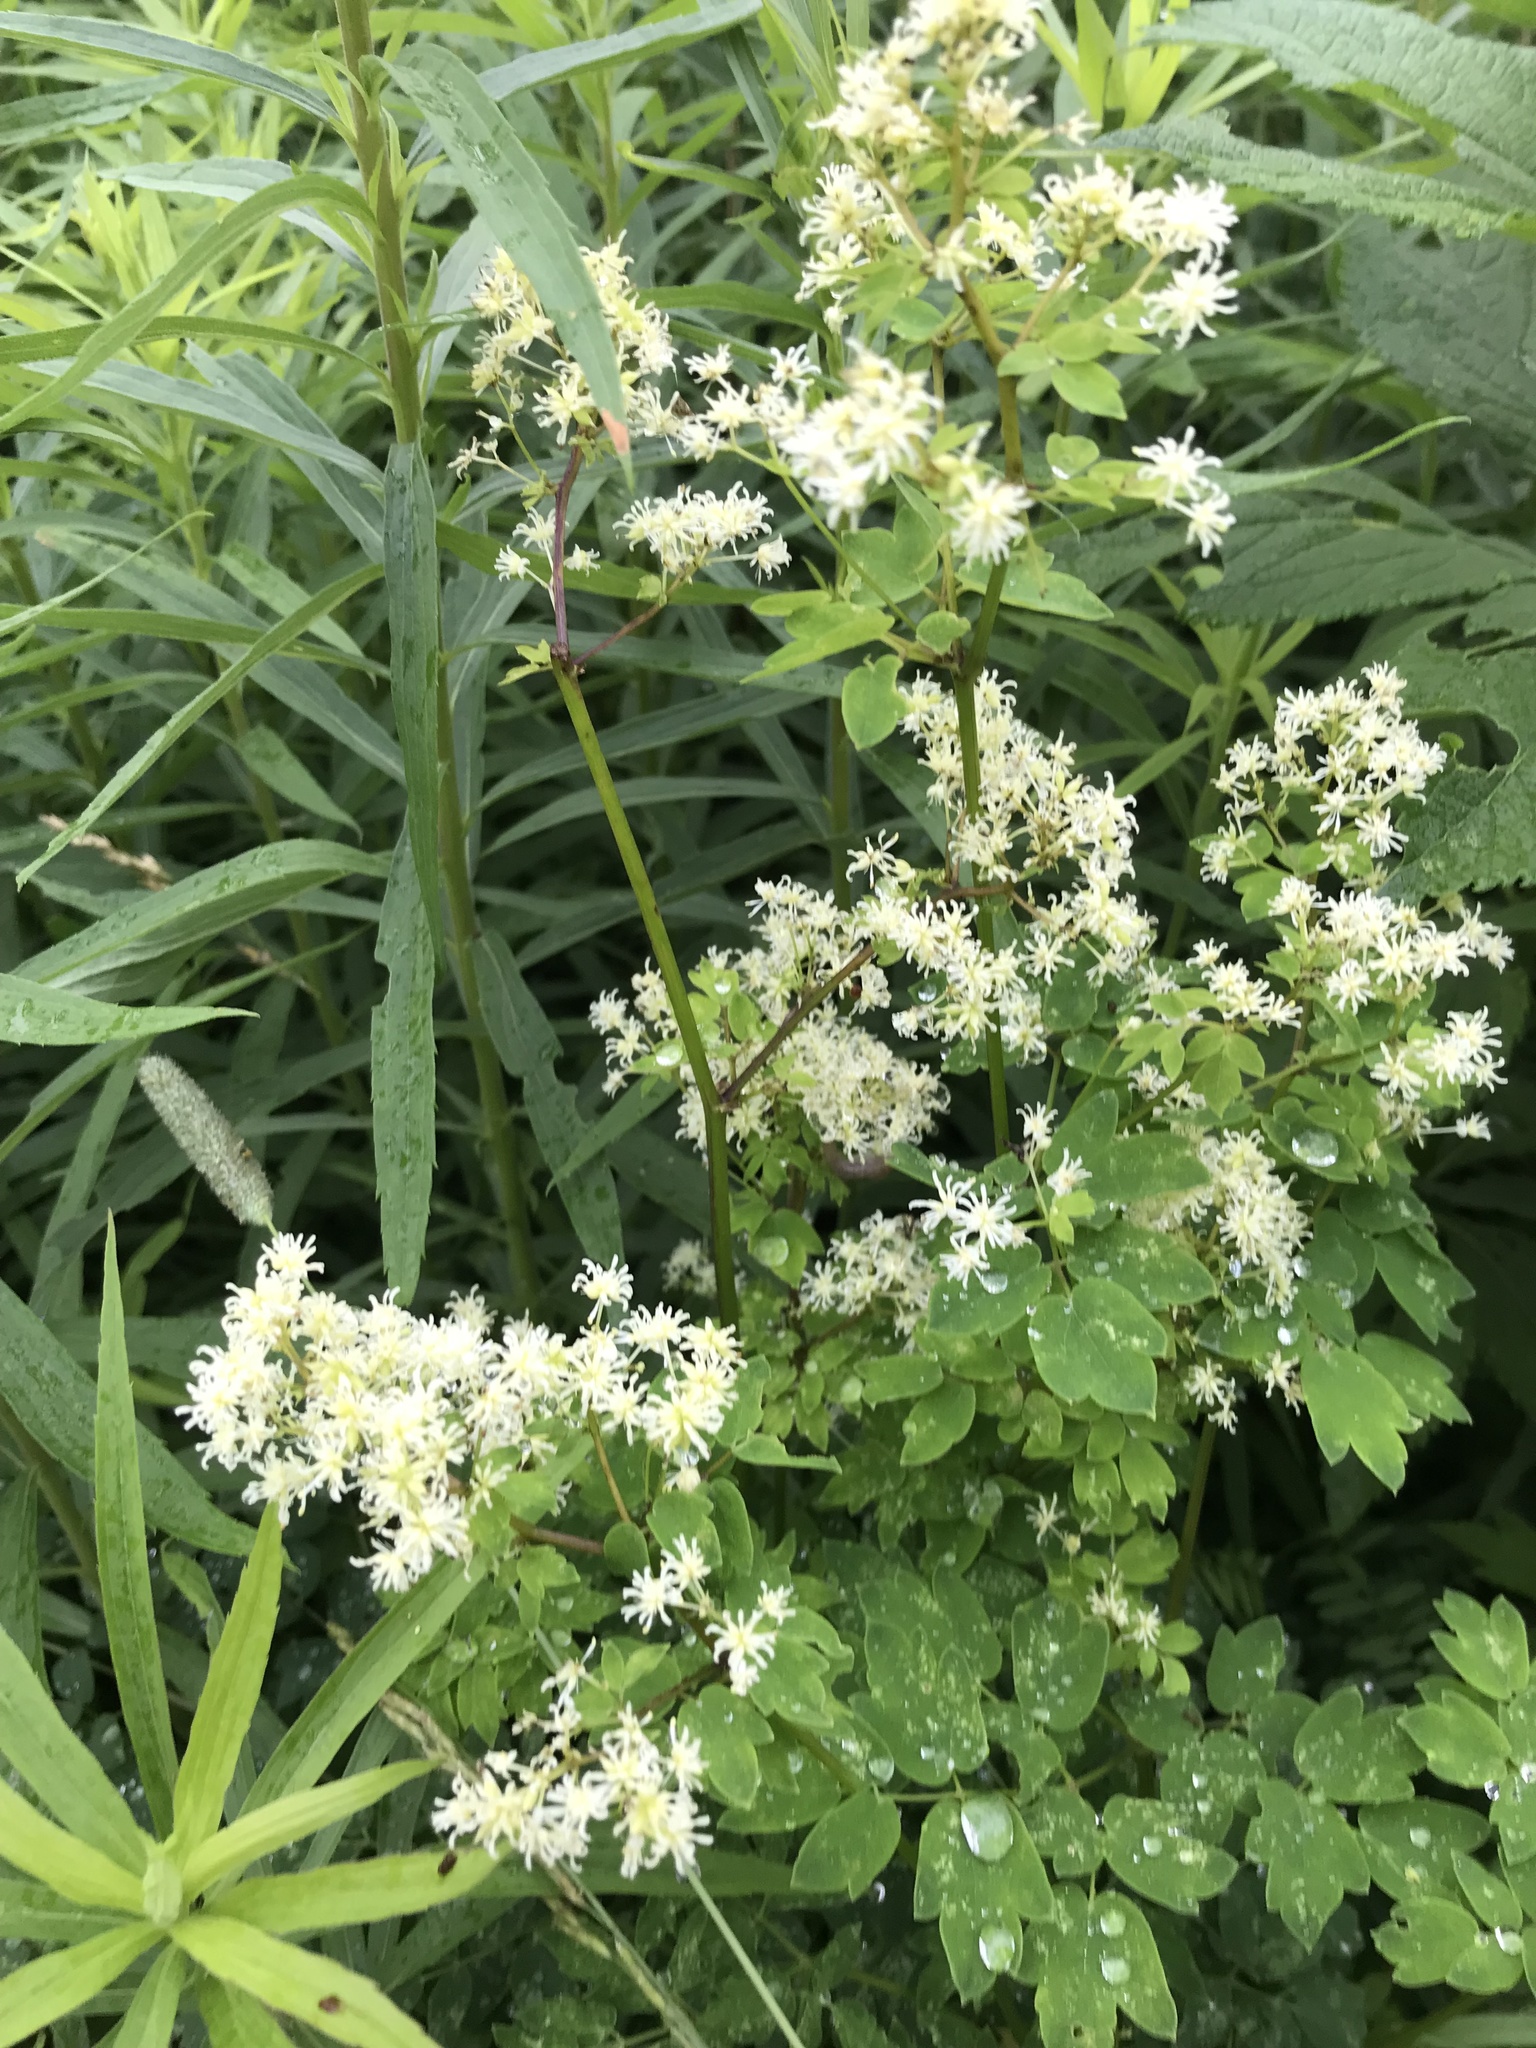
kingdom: Plantae
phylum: Tracheophyta
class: Magnoliopsida
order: Ranunculales
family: Ranunculaceae
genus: Thalictrum
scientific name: Thalictrum pubescens
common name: King-of-the-meadow
